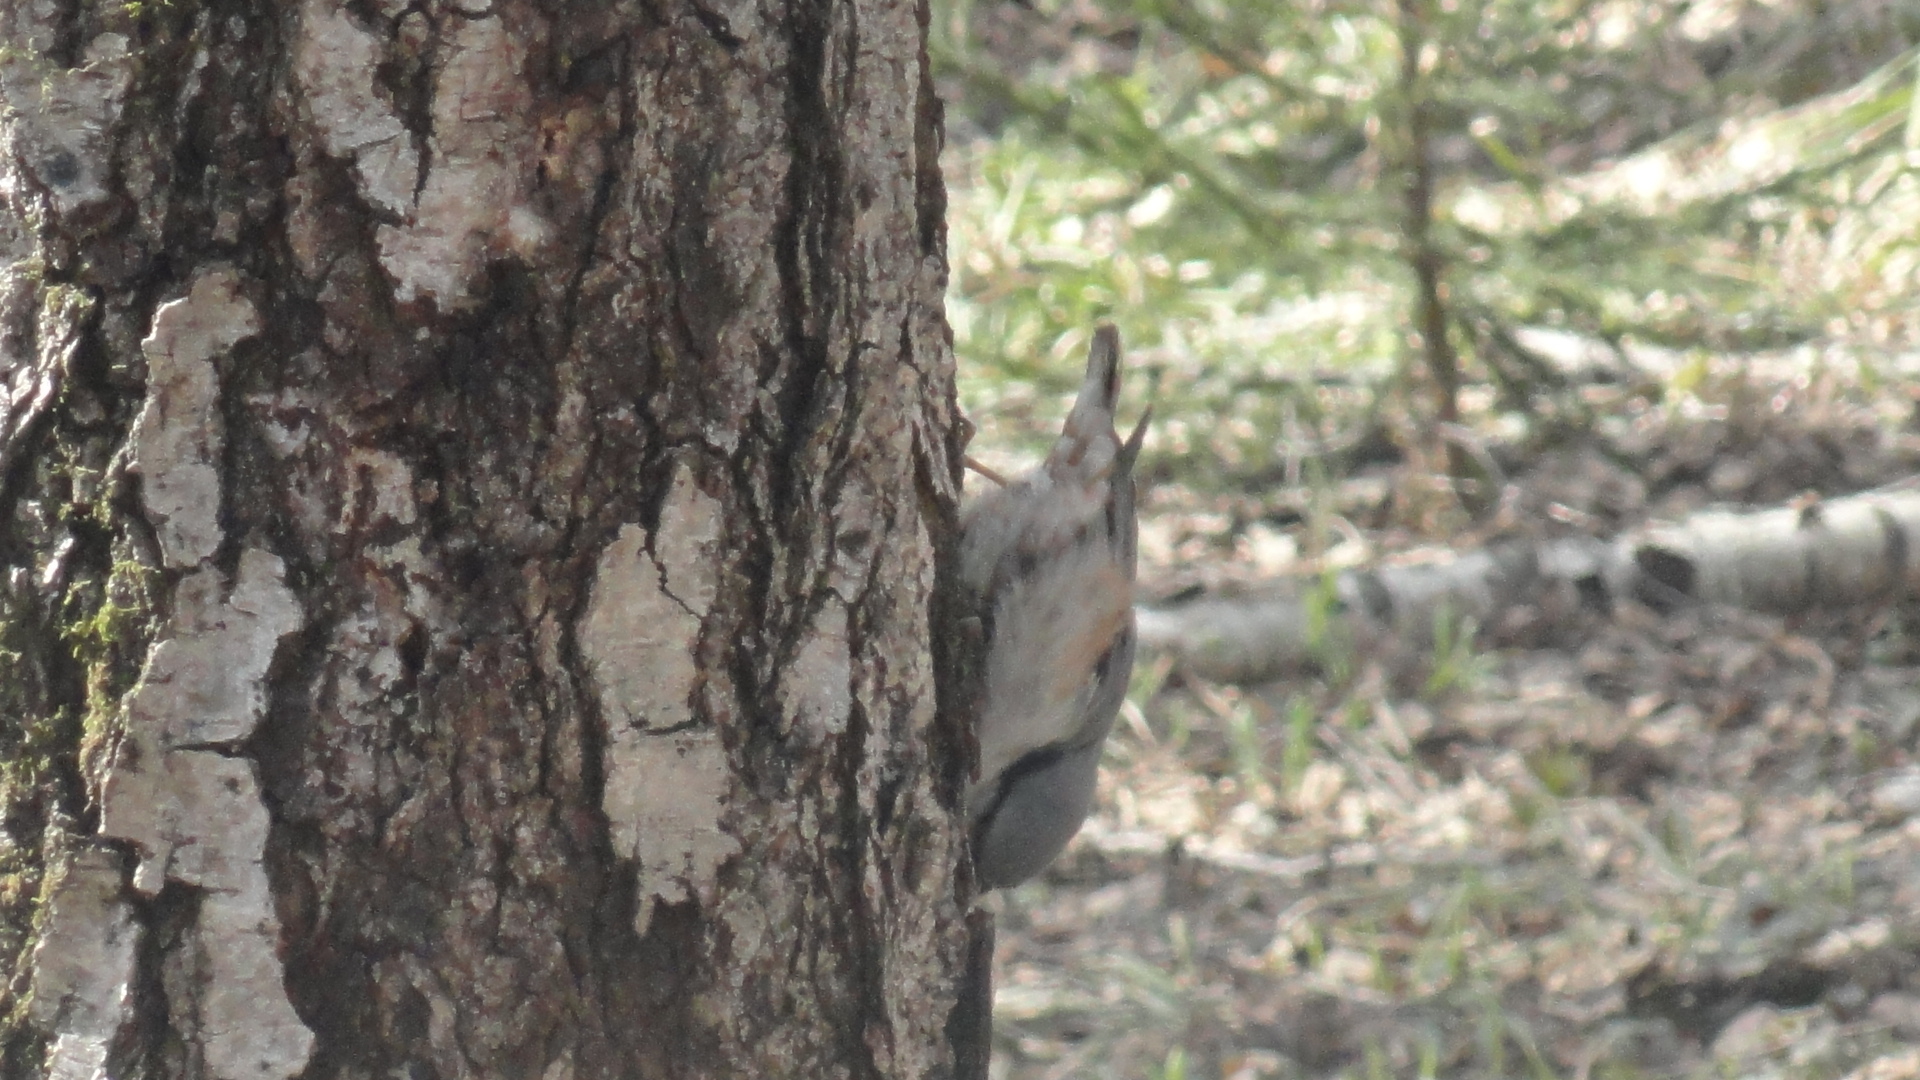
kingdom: Animalia
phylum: Chordata
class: Aves
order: Passeriformes
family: Sittidae
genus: Sitta
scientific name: Sitta europaea
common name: Eurasian nuthatch
